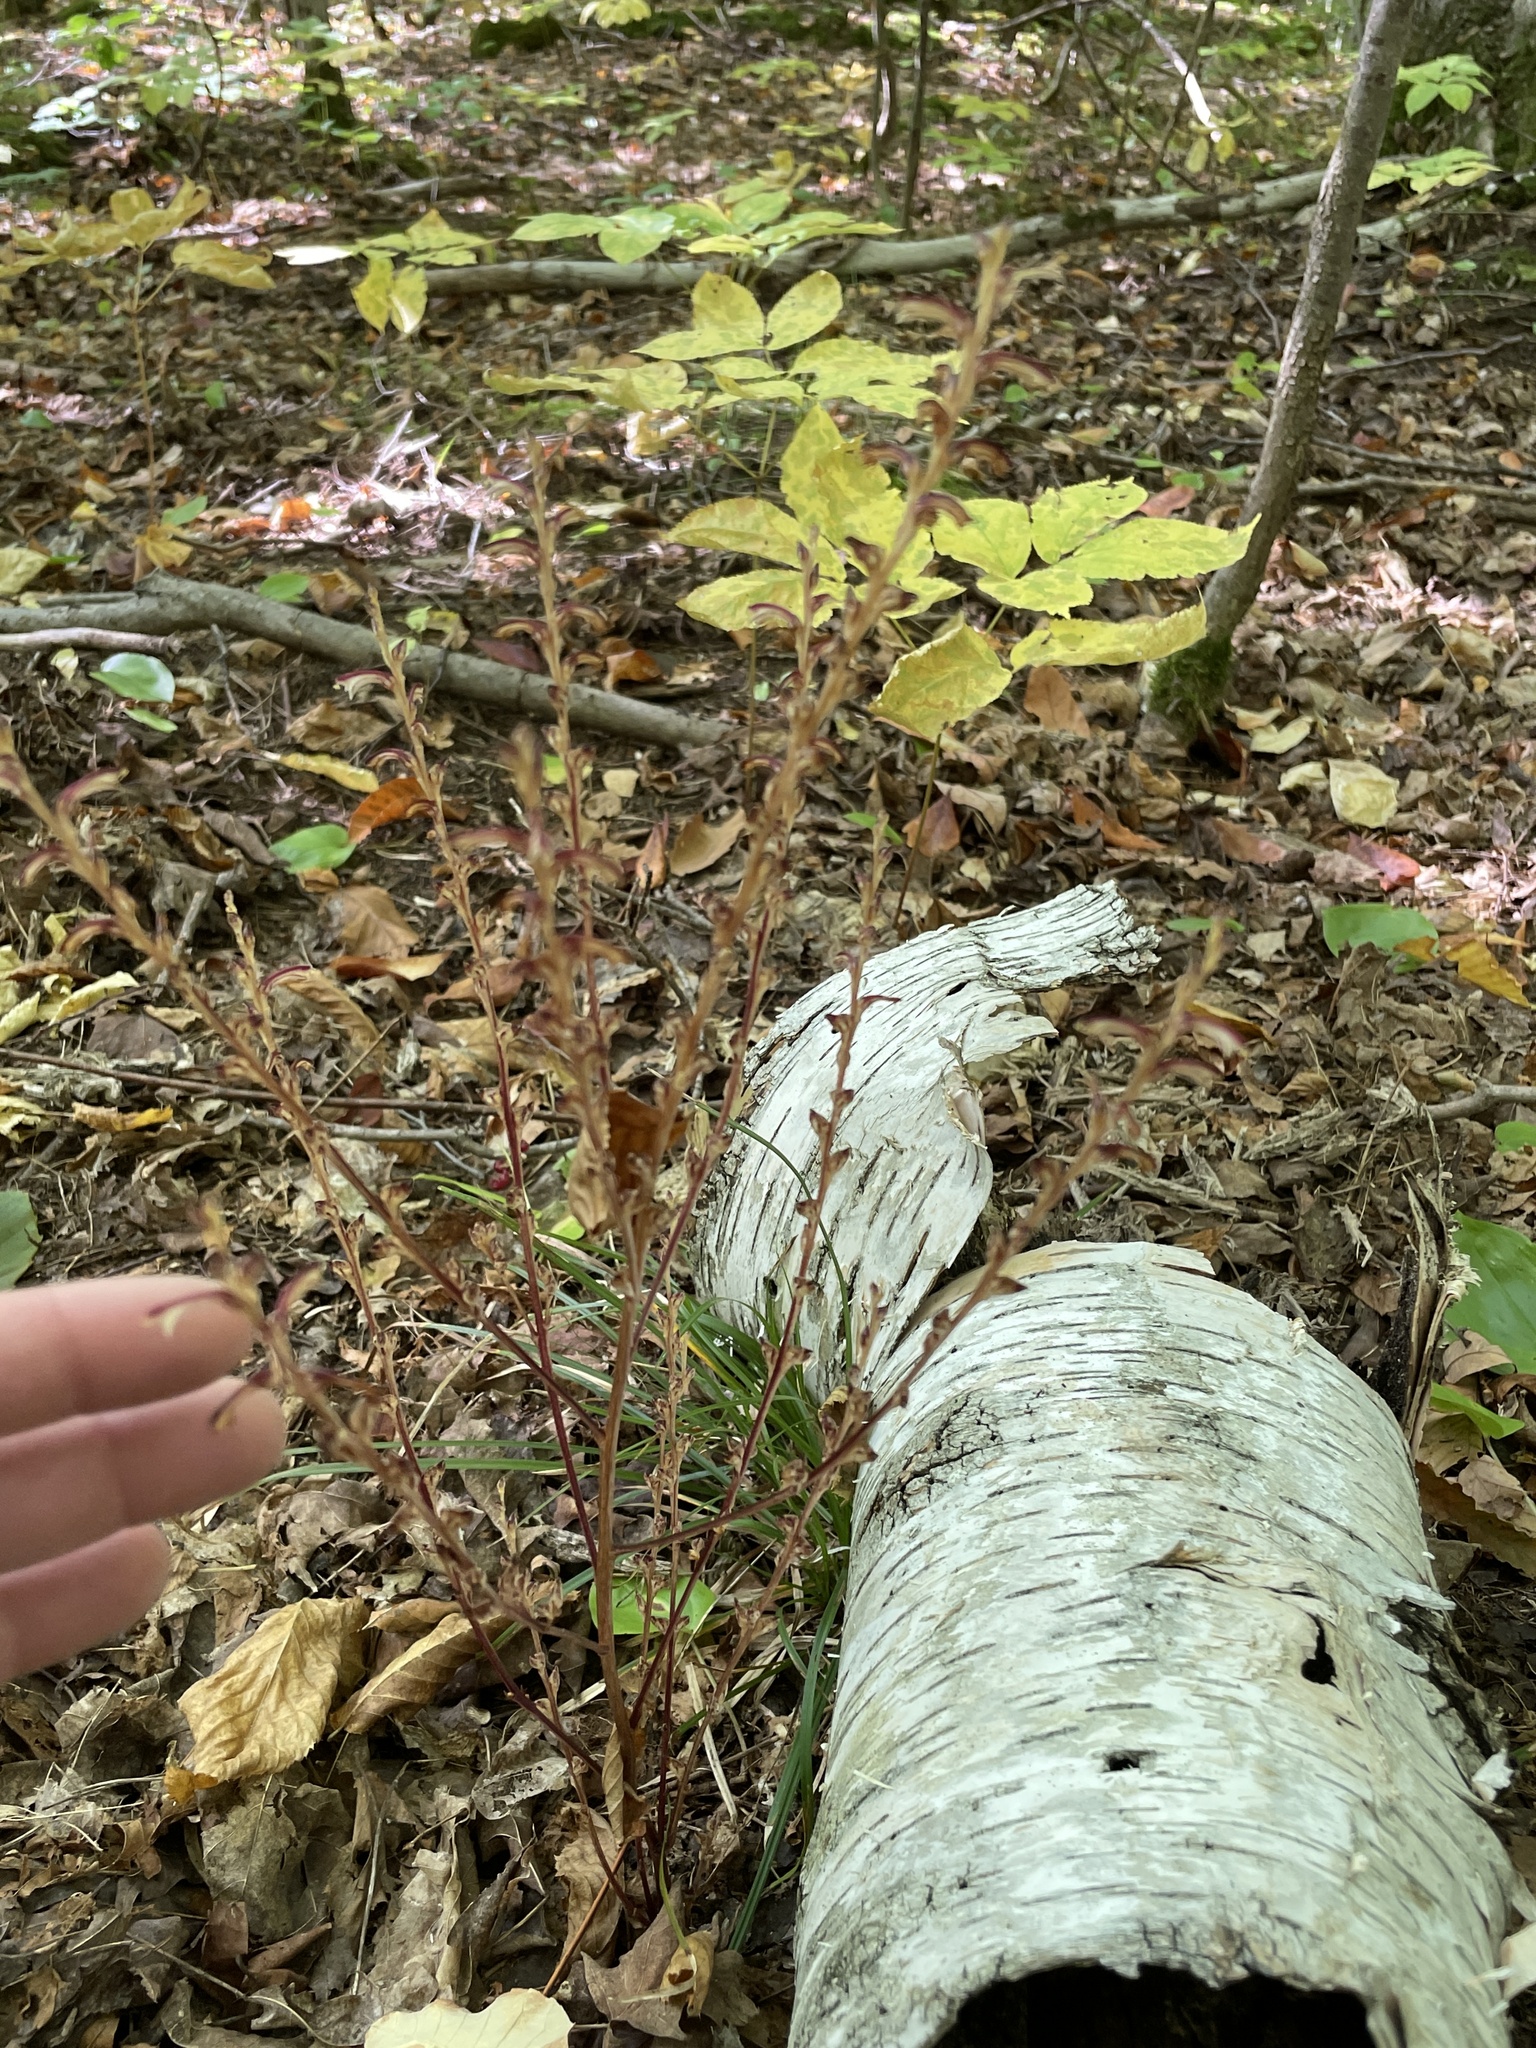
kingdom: Plantae
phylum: Tracheophyta
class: Magnoliopsida
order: Lamiales
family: Orobanchaceae
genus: Epifagus
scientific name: Epifagus virginiana
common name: Beechdrops
